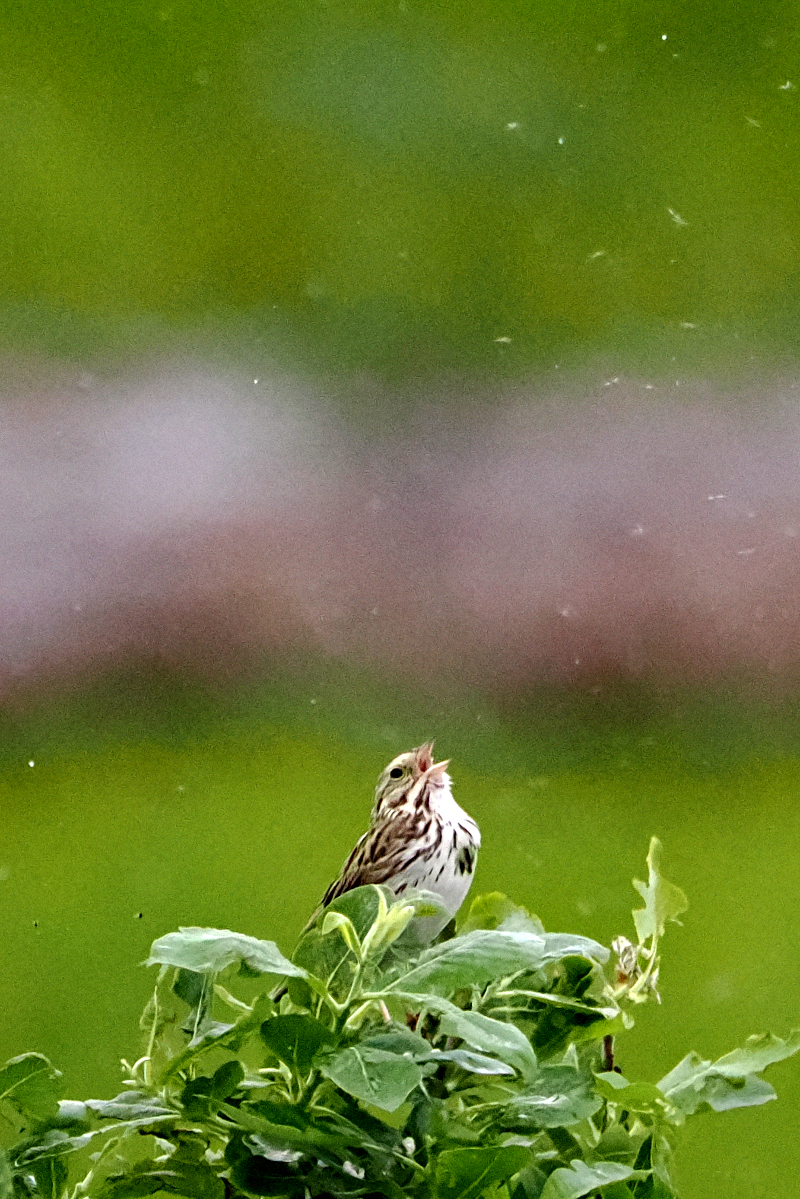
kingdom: Animalia
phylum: Chordata
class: Aves
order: Passeriformes
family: Passerellidae
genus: Passerculus
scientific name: Passerculus sandwichensis
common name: Savannah sparrow
